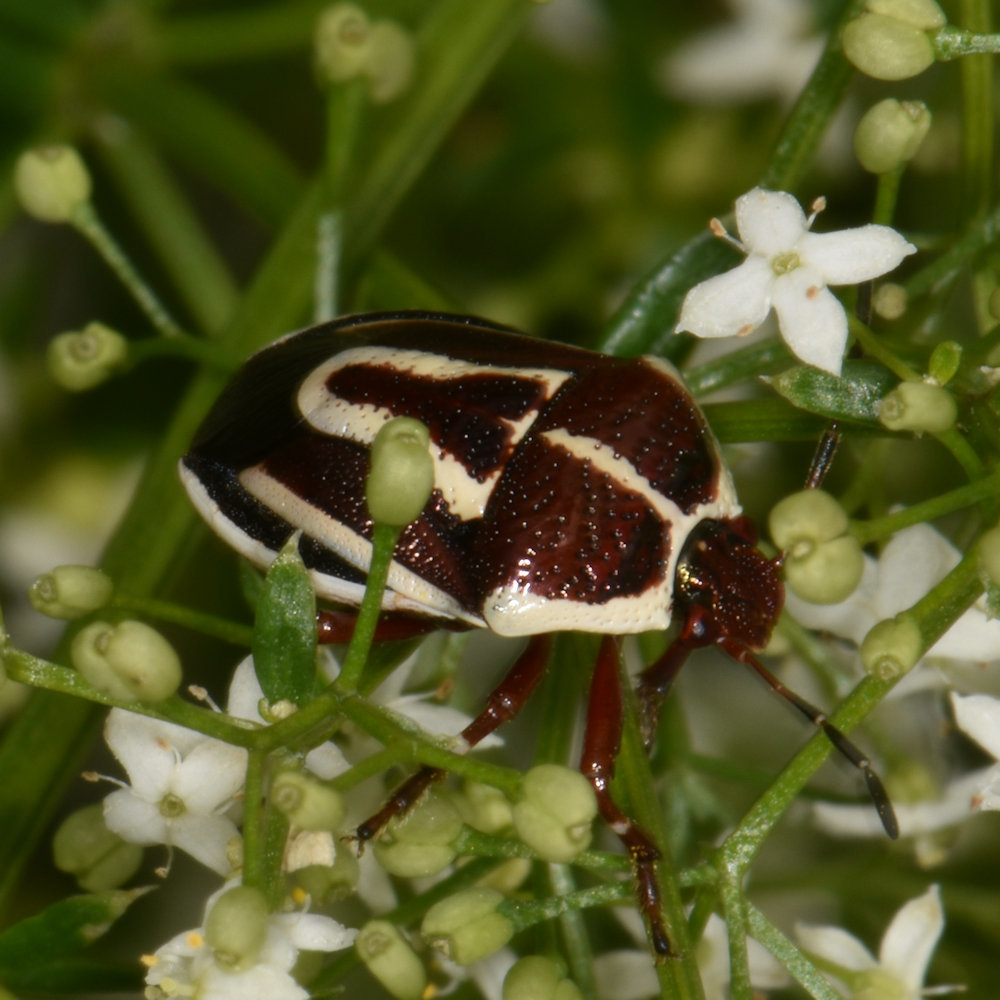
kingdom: Animalia
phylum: Arthropoda
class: Insecta
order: Hemiptera
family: Pentatomidae
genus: Perillus
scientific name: Perillus circumcinctus
